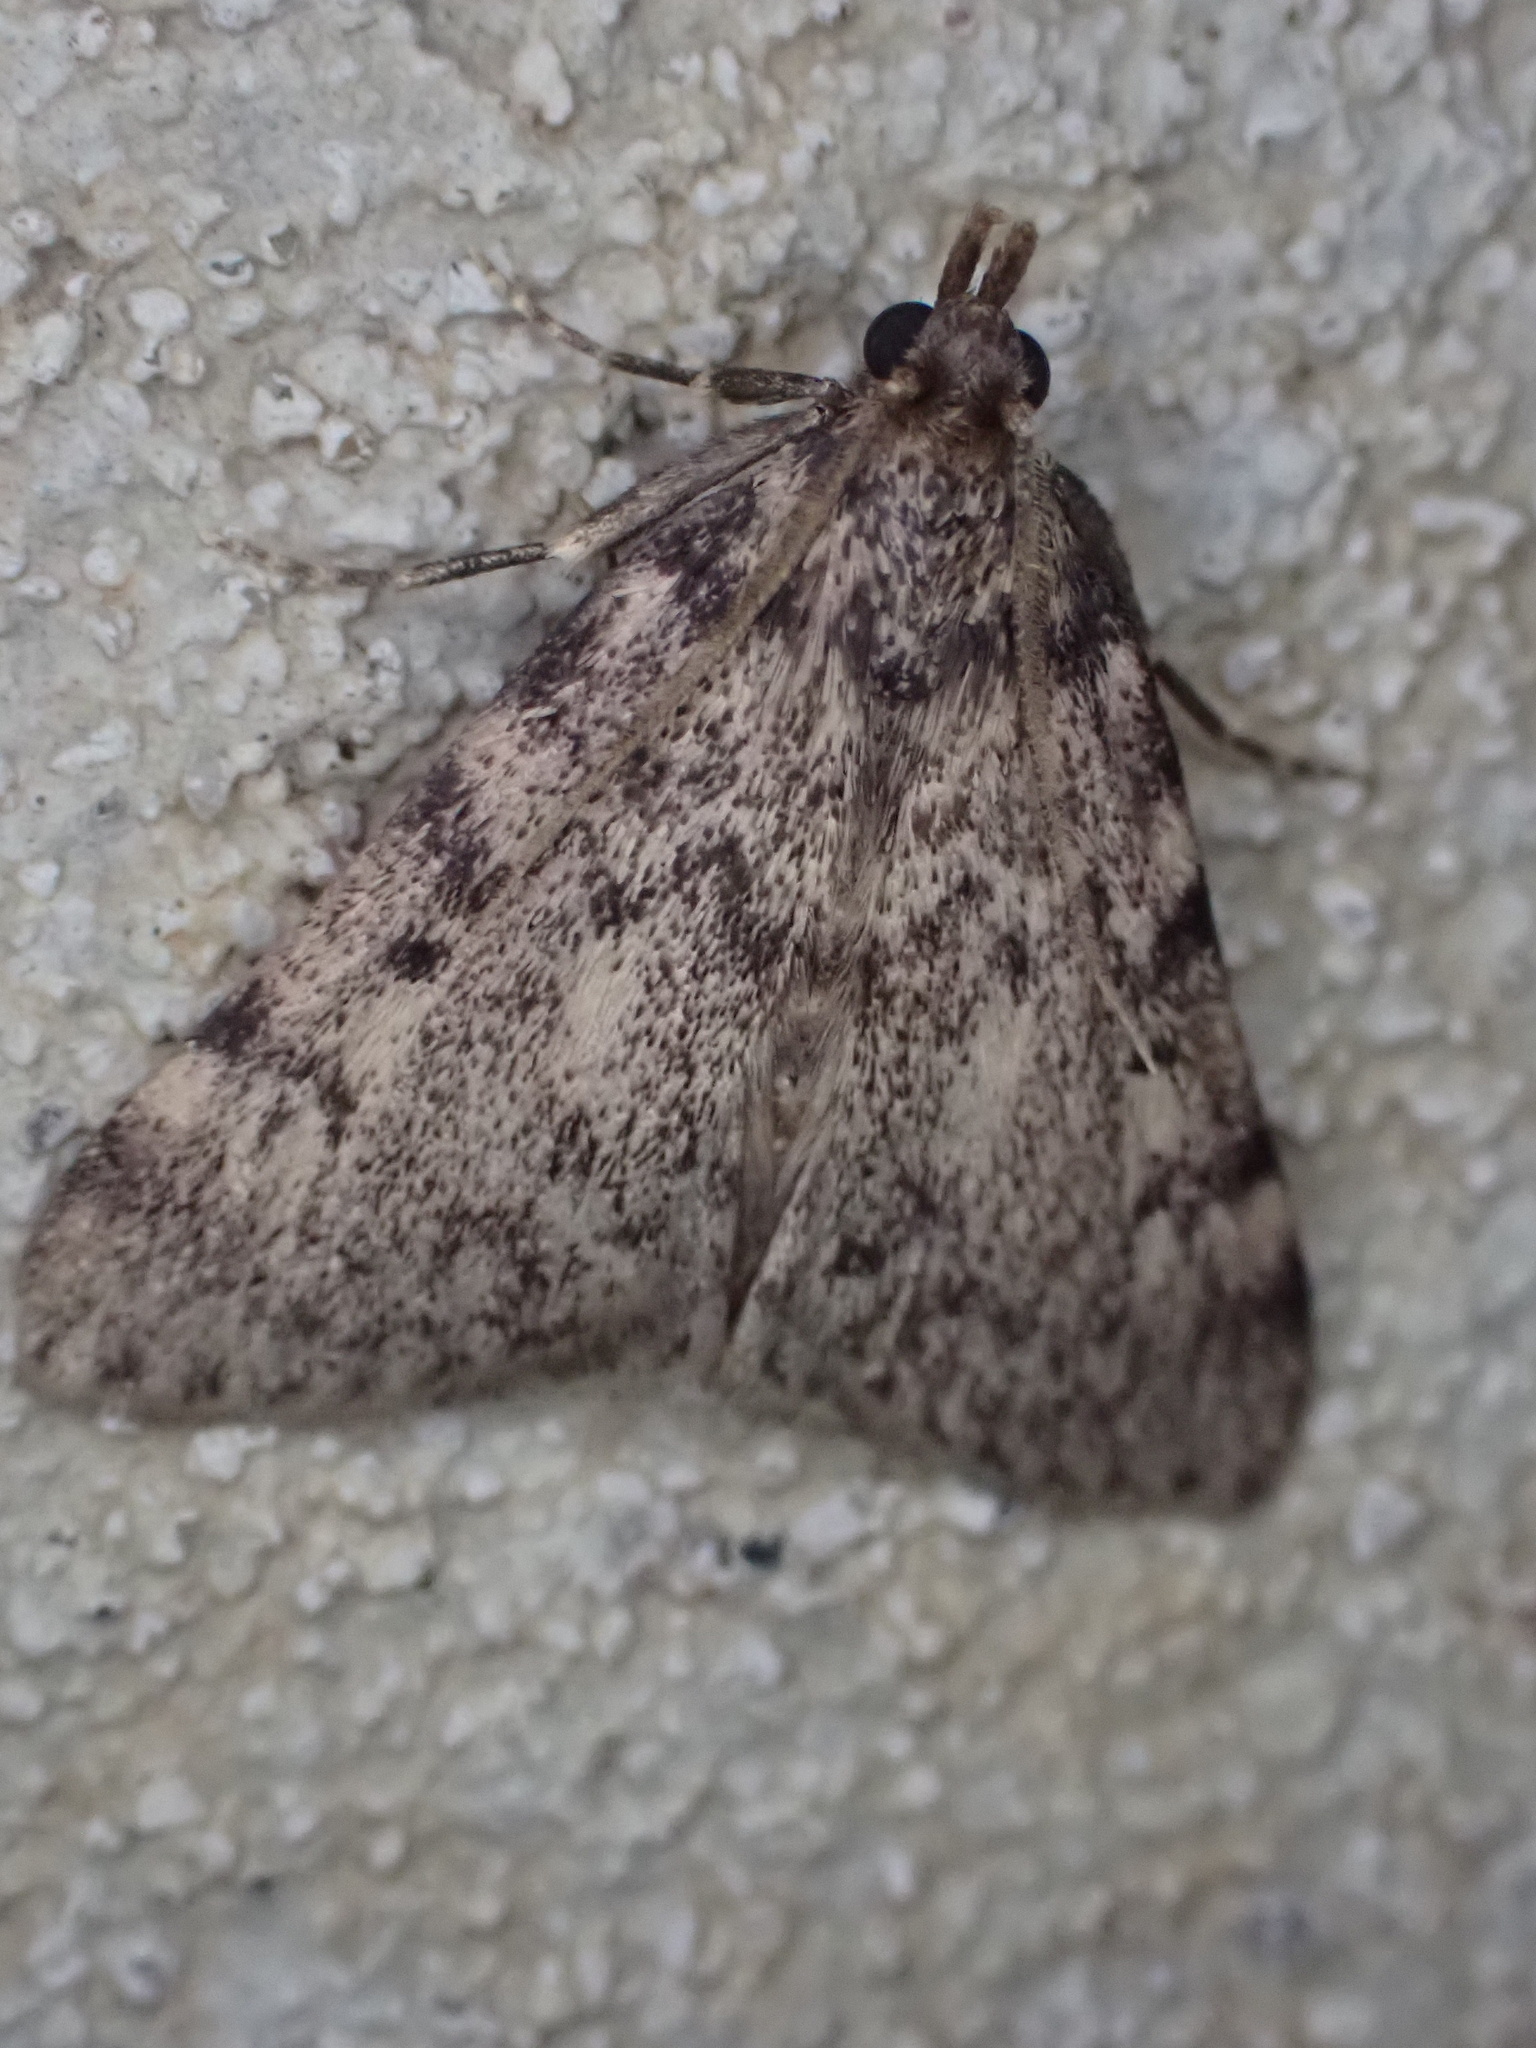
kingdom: Animalia
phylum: Arthropoda
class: Insecta
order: Lepidoptera
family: Pyralidae
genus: Aglossa
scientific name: Aglossa pinguinalis
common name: Large tabby
